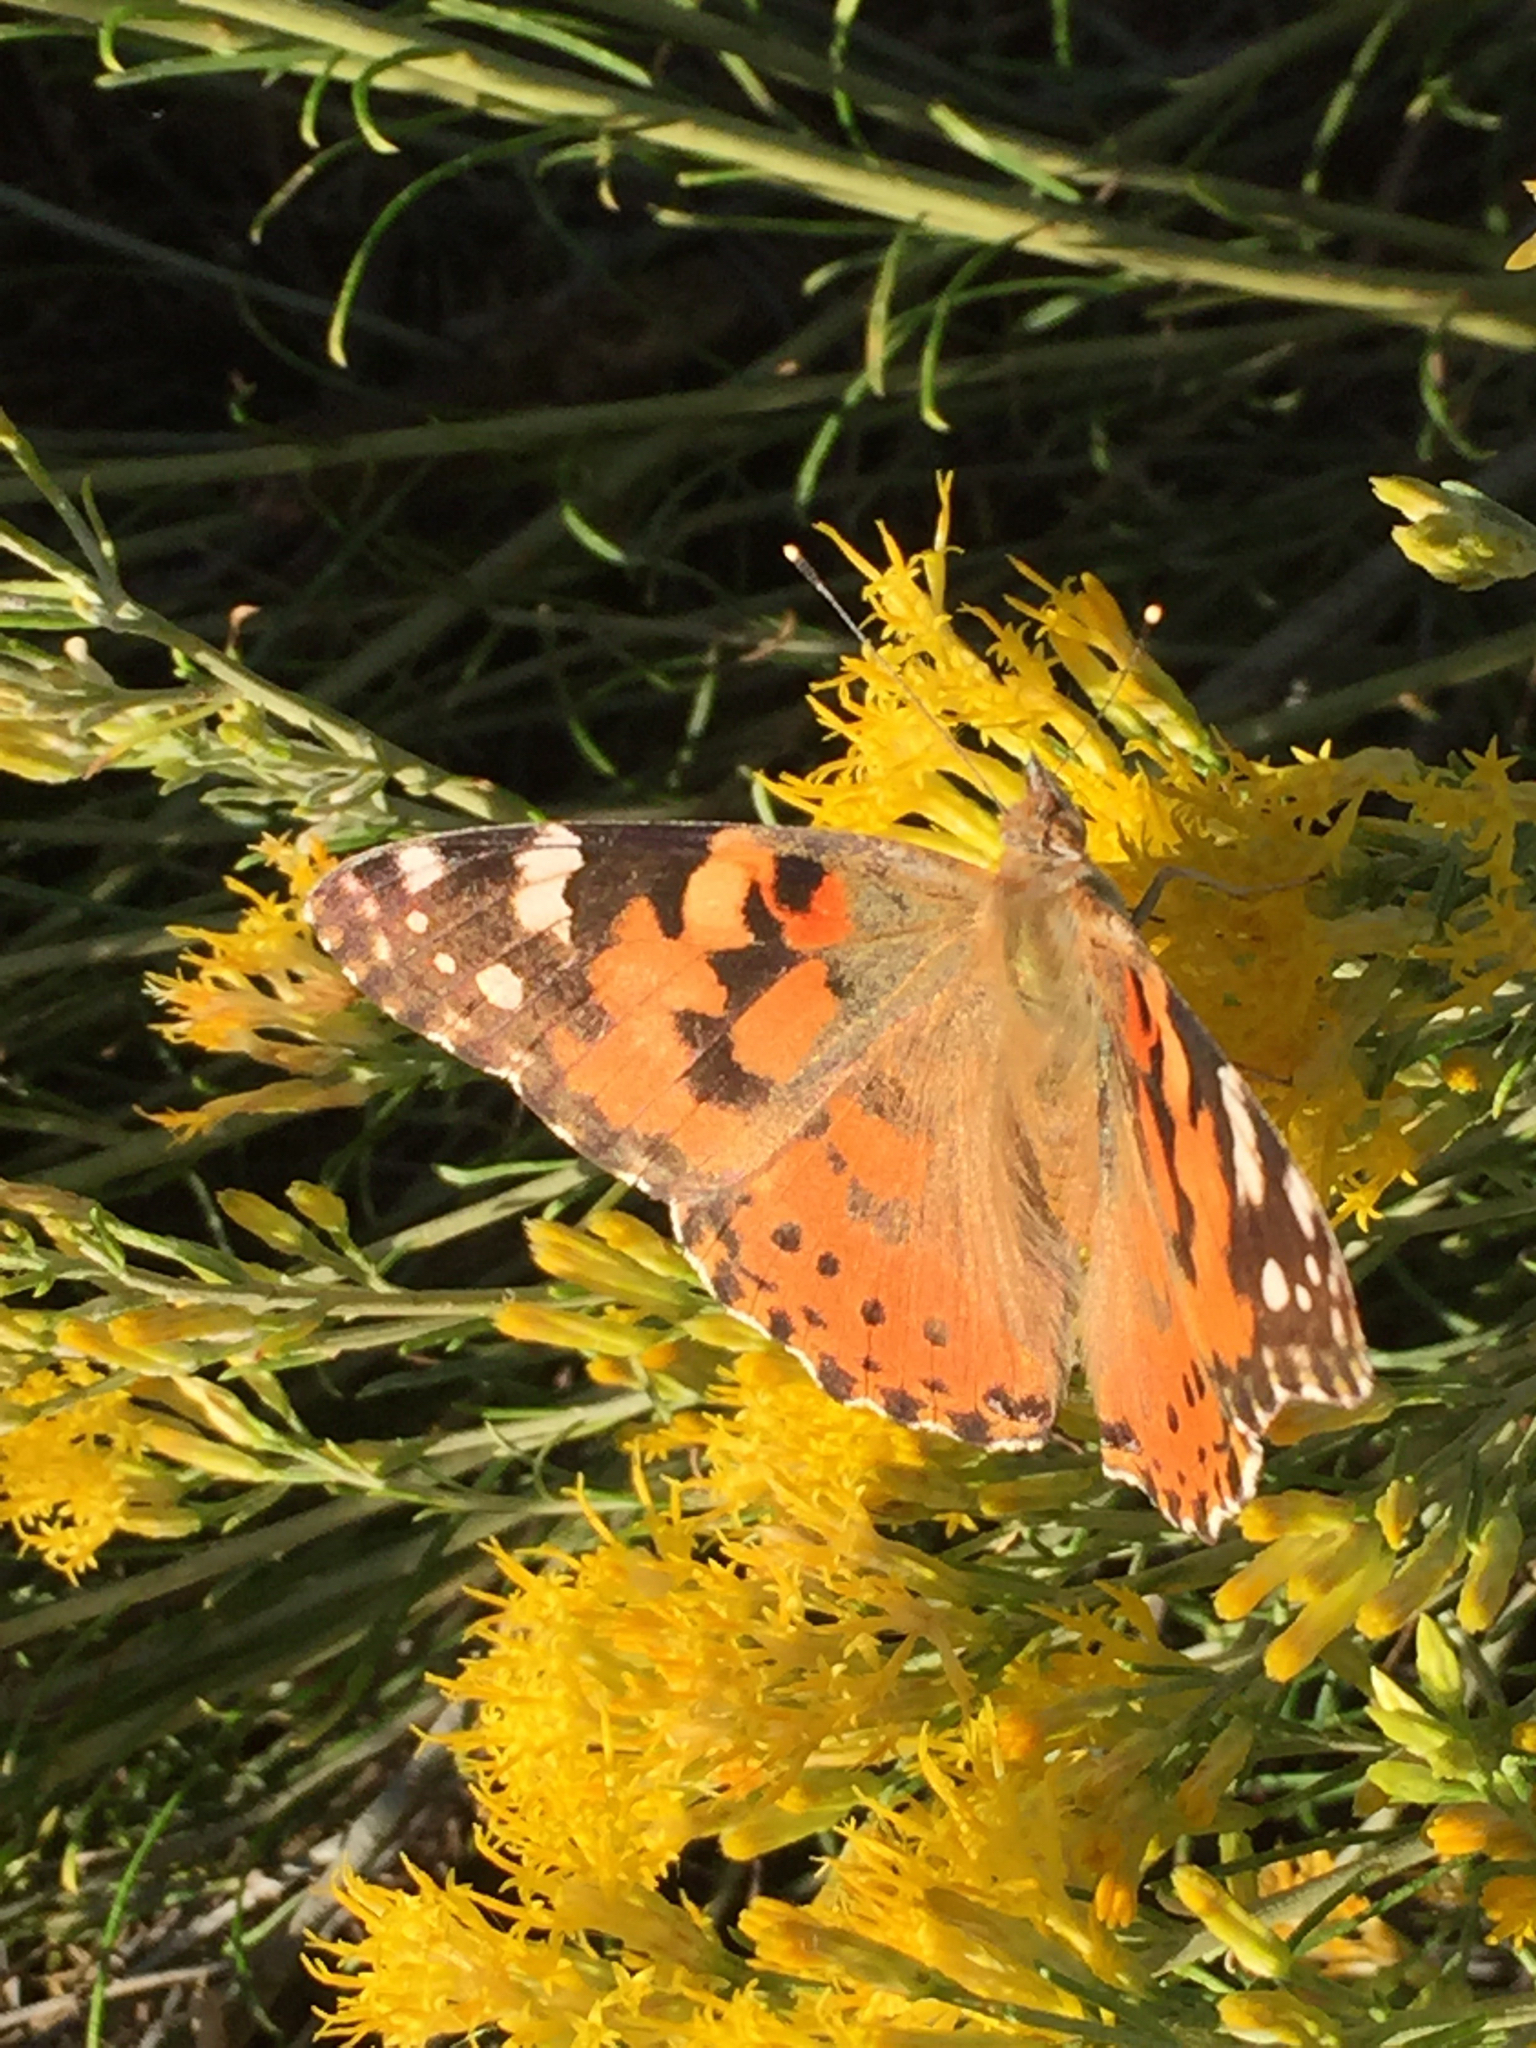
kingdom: Animalia
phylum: Arthropoda
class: Insecta
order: Lepidoptera
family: Nymphalidae
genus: Vanessa
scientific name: Vanessa cardui
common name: Painted lady
